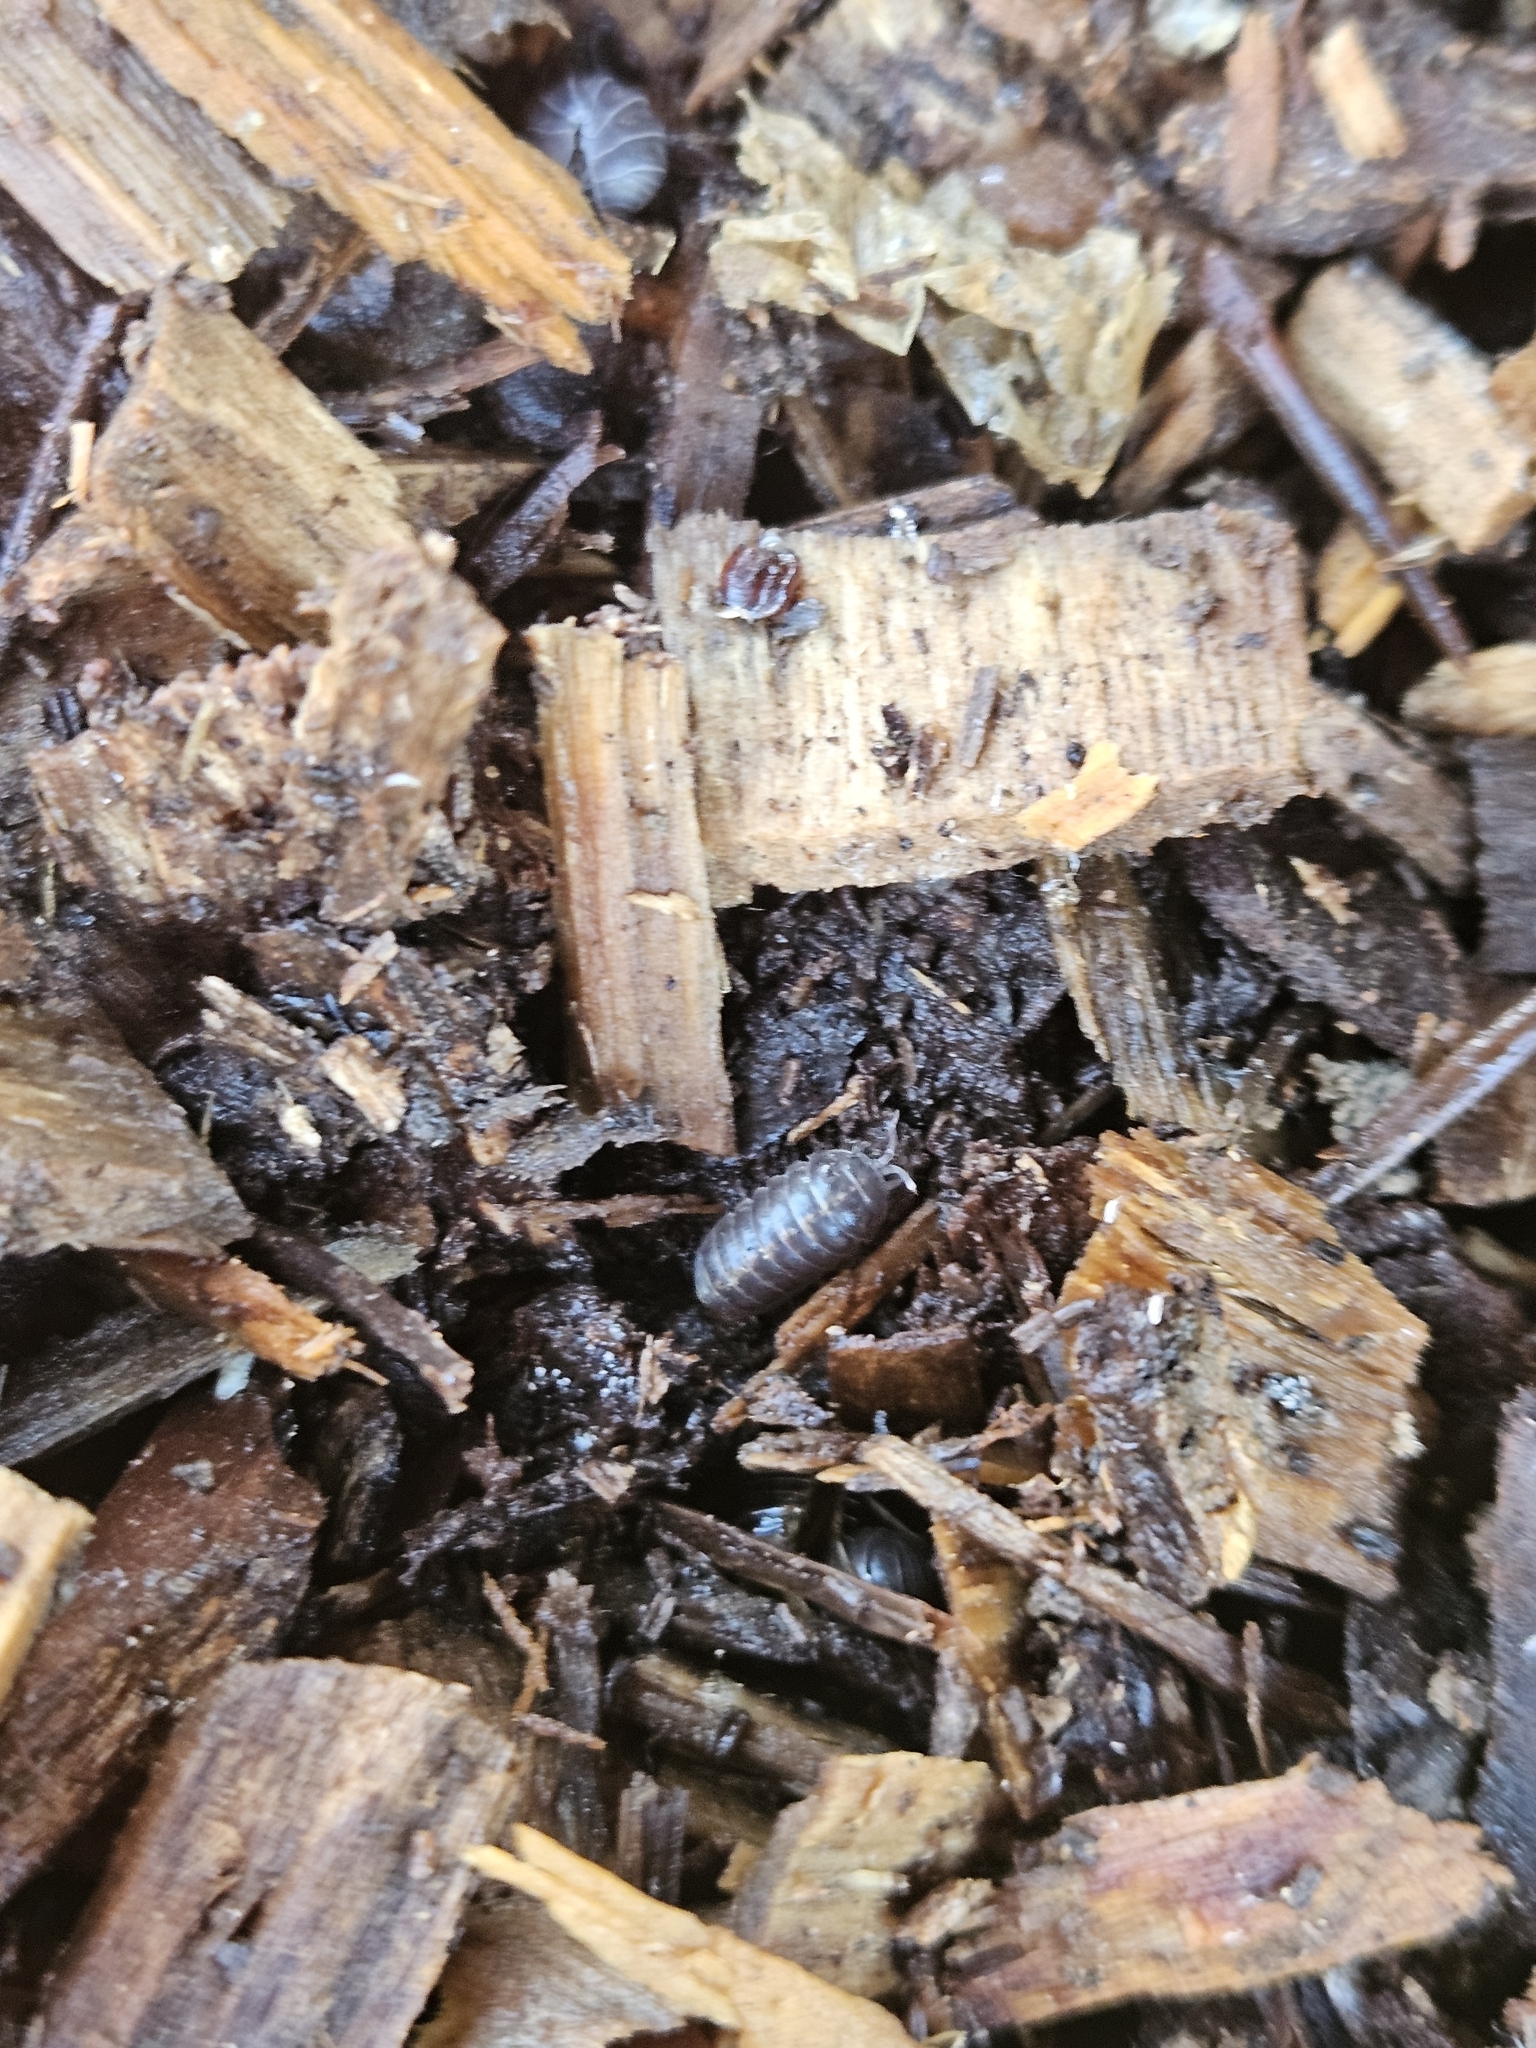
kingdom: Animalia
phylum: Arthropoda
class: Malacostraca
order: Isopoda
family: Armadillidiidae
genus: Armadillidium
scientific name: Armadillidium vulgare
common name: Common pill woodlouse
